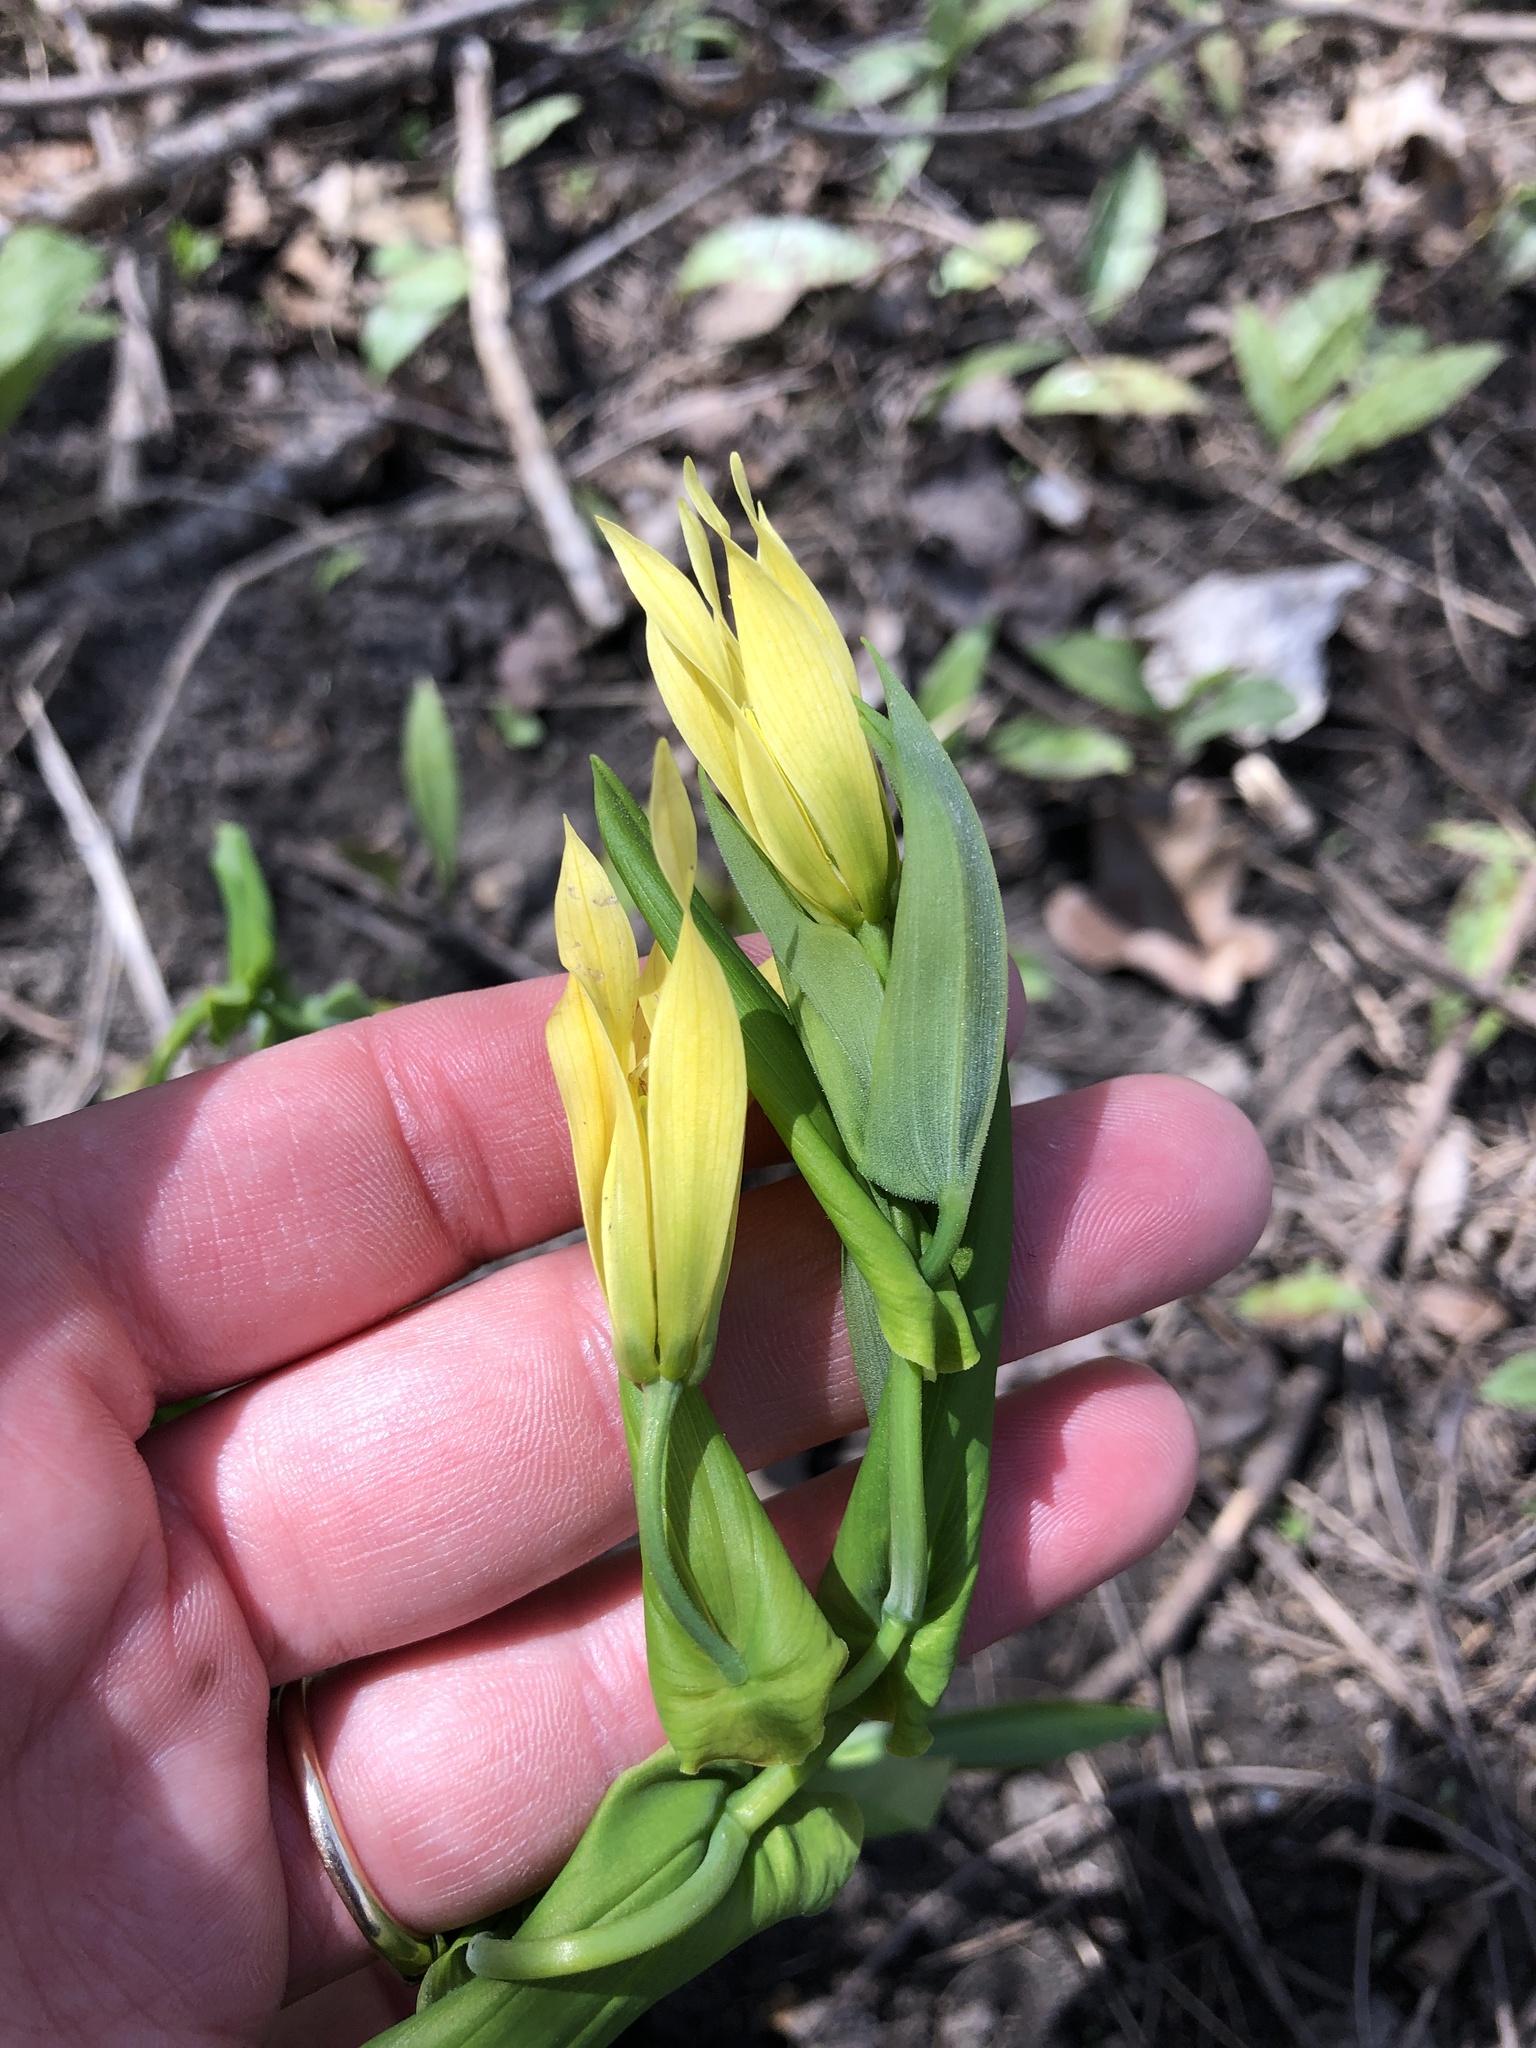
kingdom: Plantae
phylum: Tracheophyta
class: Liliopsida
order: Liliales
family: Colchicaceae
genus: Uvularia
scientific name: Uvularia grandiflora
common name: Bellwort
